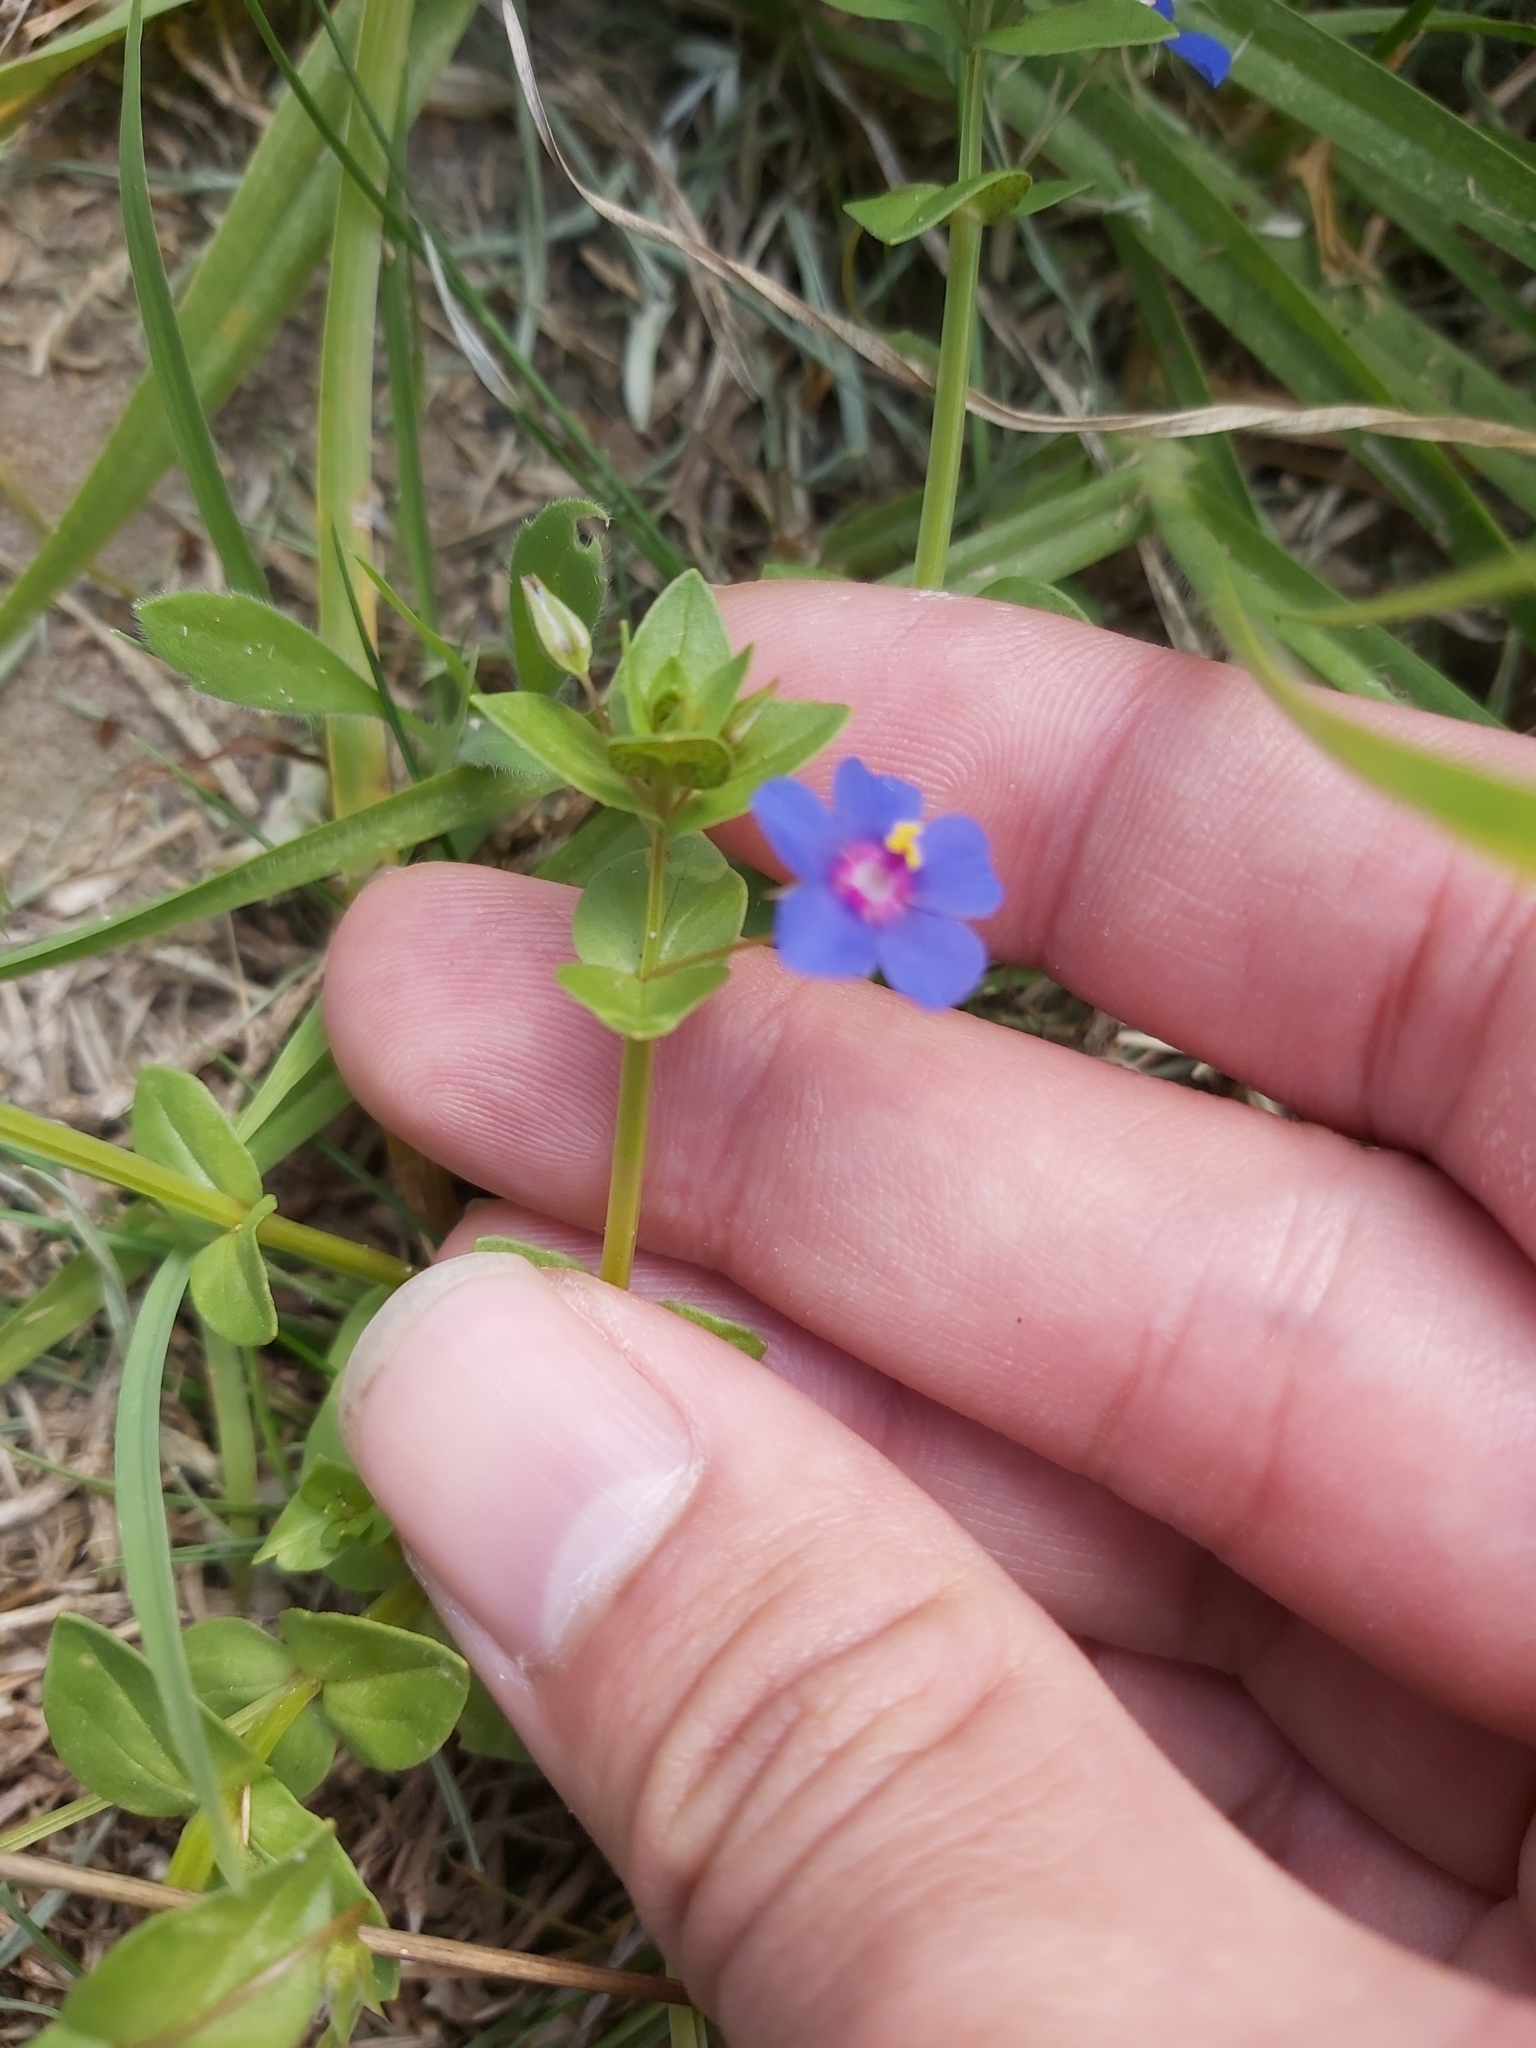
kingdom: Plantae
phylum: Tracheophyta
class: Magnoliopsida
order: Ericales
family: Primulaceae
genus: Lysimachia
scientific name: Lysimachia loeflingii
